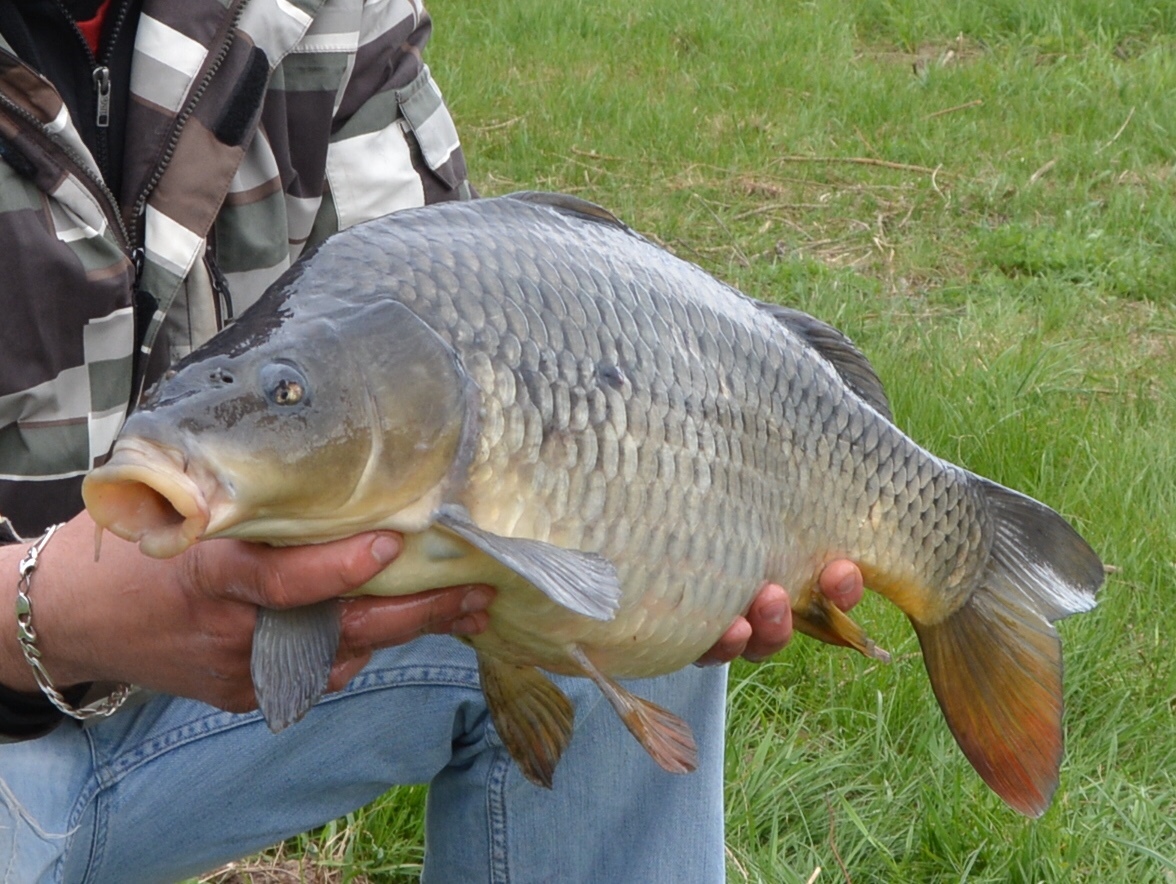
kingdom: Animalia
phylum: Chordata
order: Cypriniformes
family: Cyprinidae
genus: Cyprinus
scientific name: Cyprinus carpio
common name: Common carp
